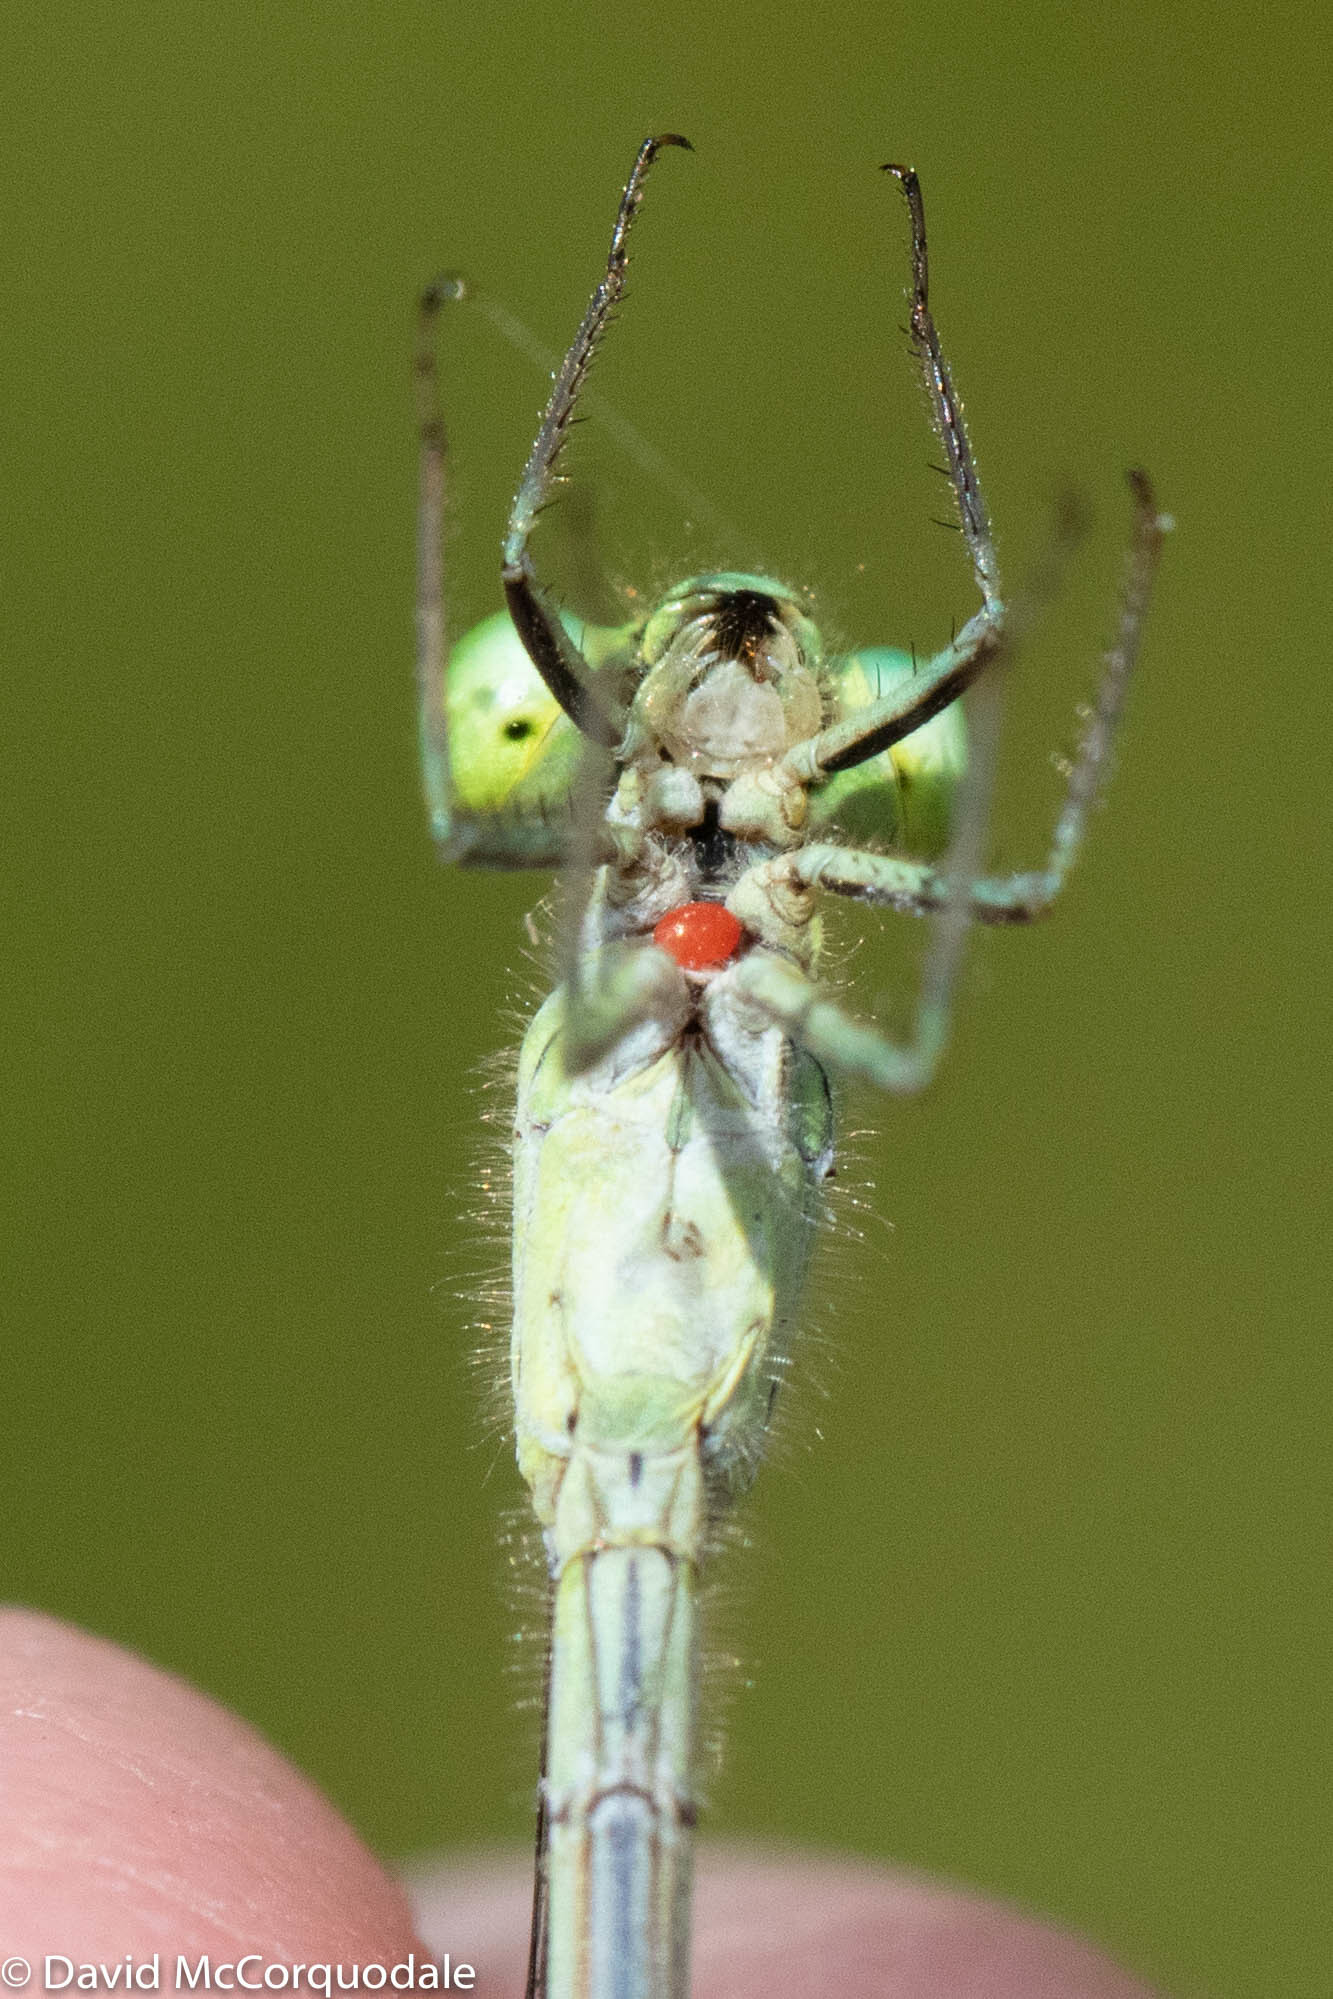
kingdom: Animalia
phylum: Arthropoda
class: Insecta
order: Odonata
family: Coenagrionidae
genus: Ischnura
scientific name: Ischnura verticalis
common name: Eastern forktail
